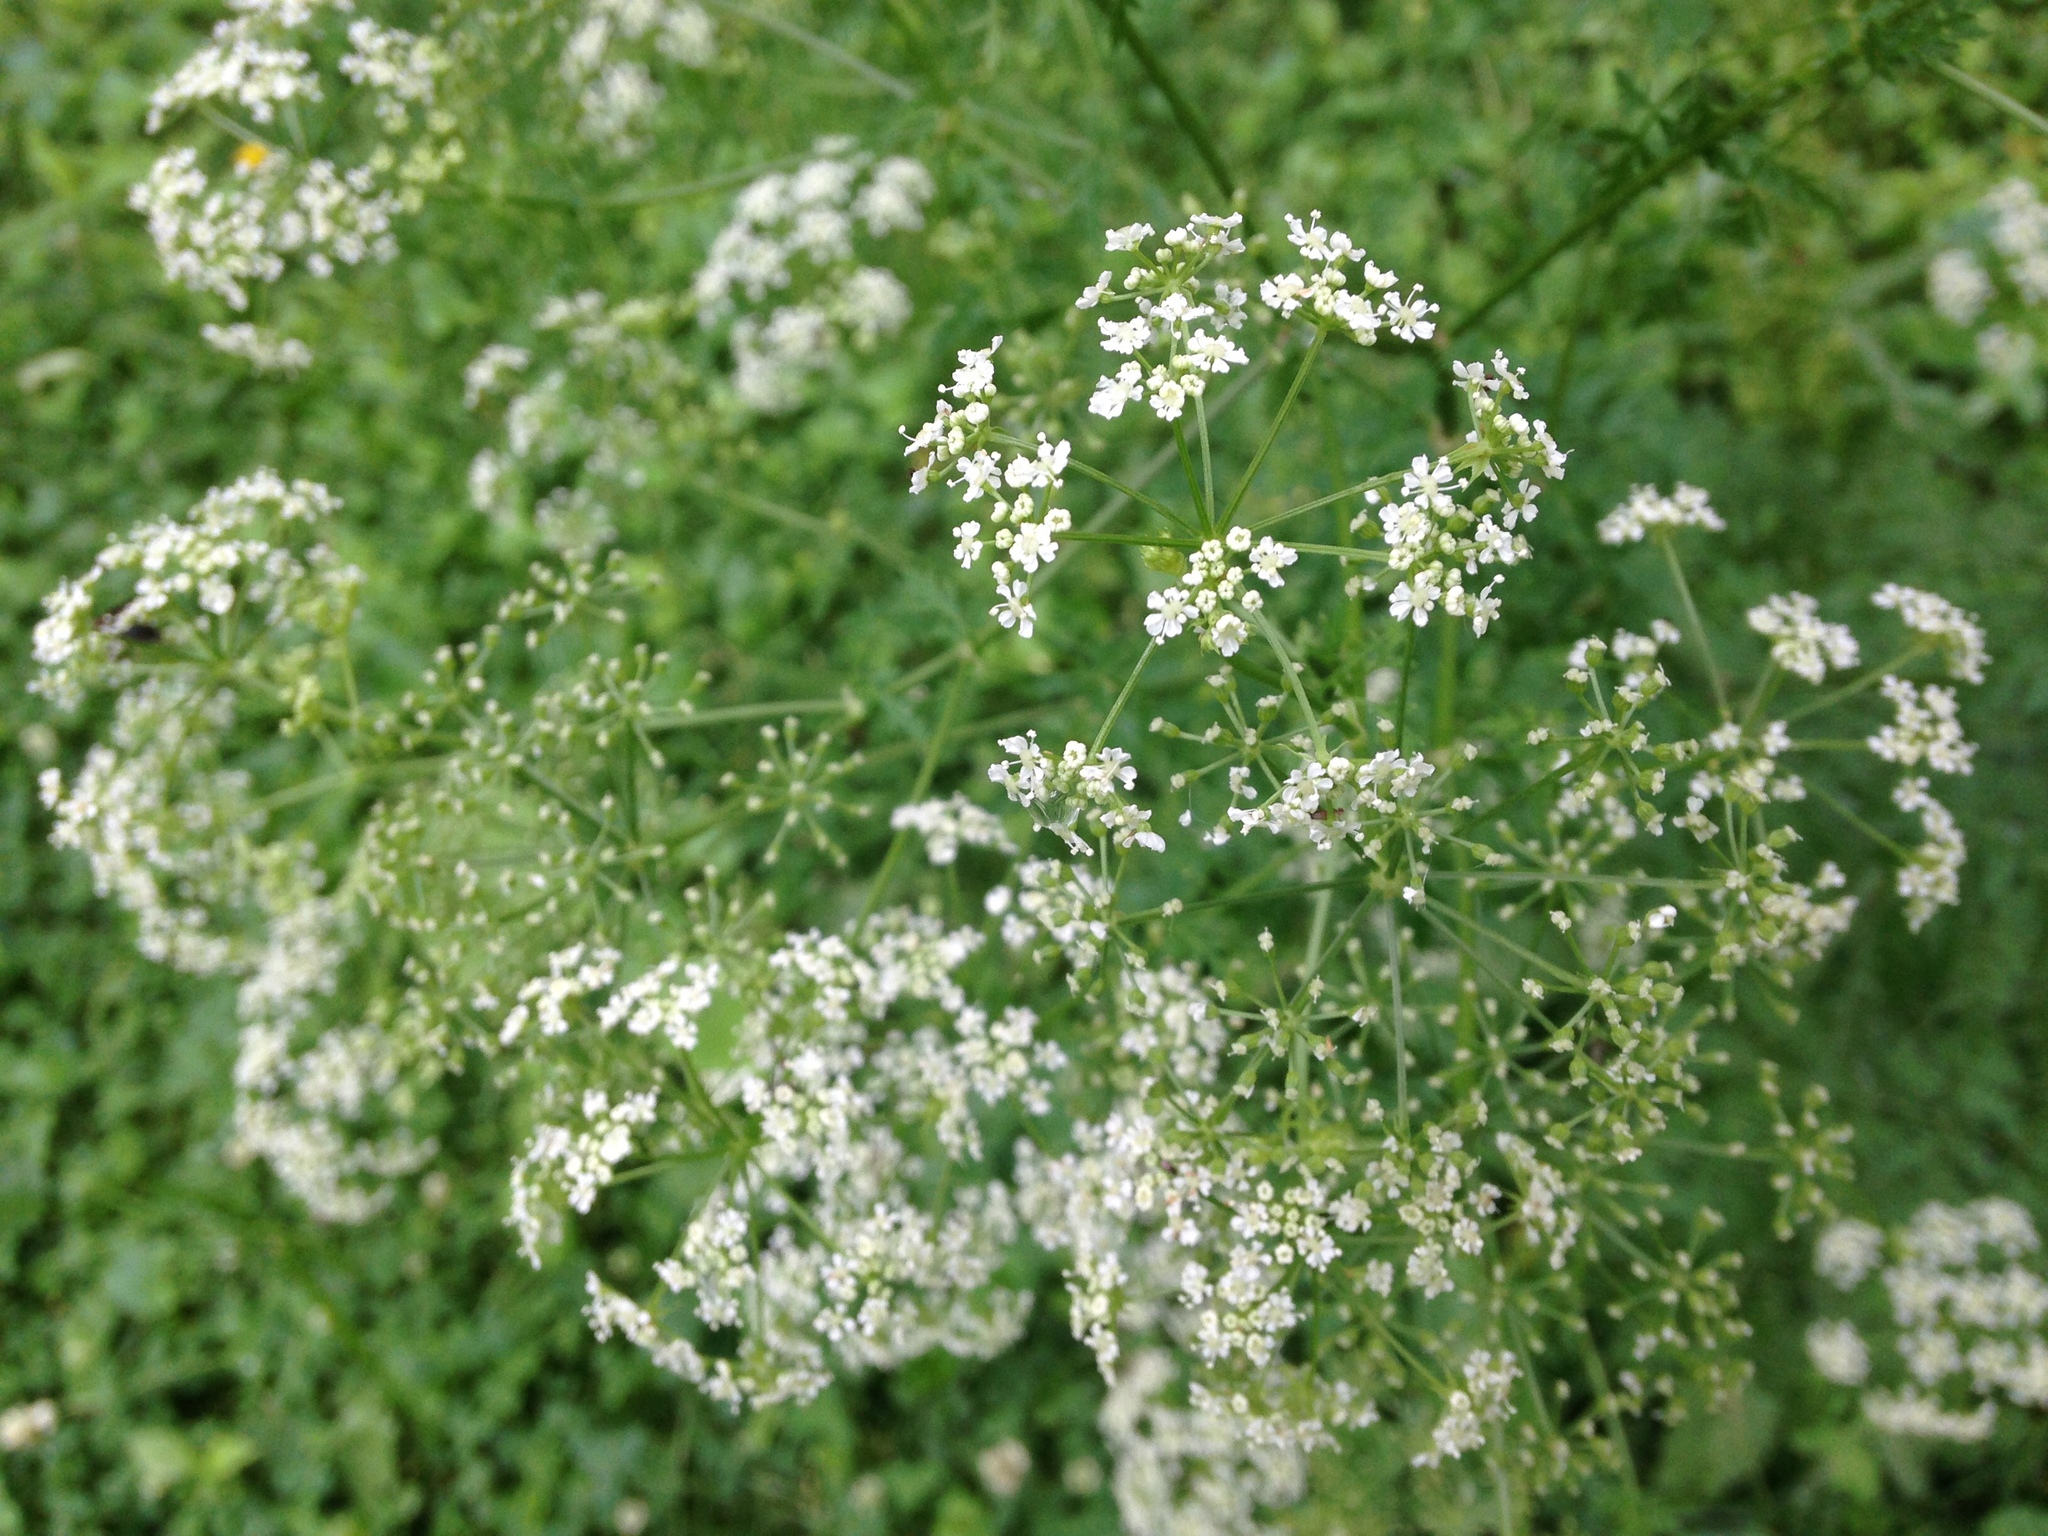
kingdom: Plantae
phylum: Tracheophyta
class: Magnoliopsida
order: Apiales
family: Apiaceae
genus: Conium
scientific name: Conium maculatum
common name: Hemlock
